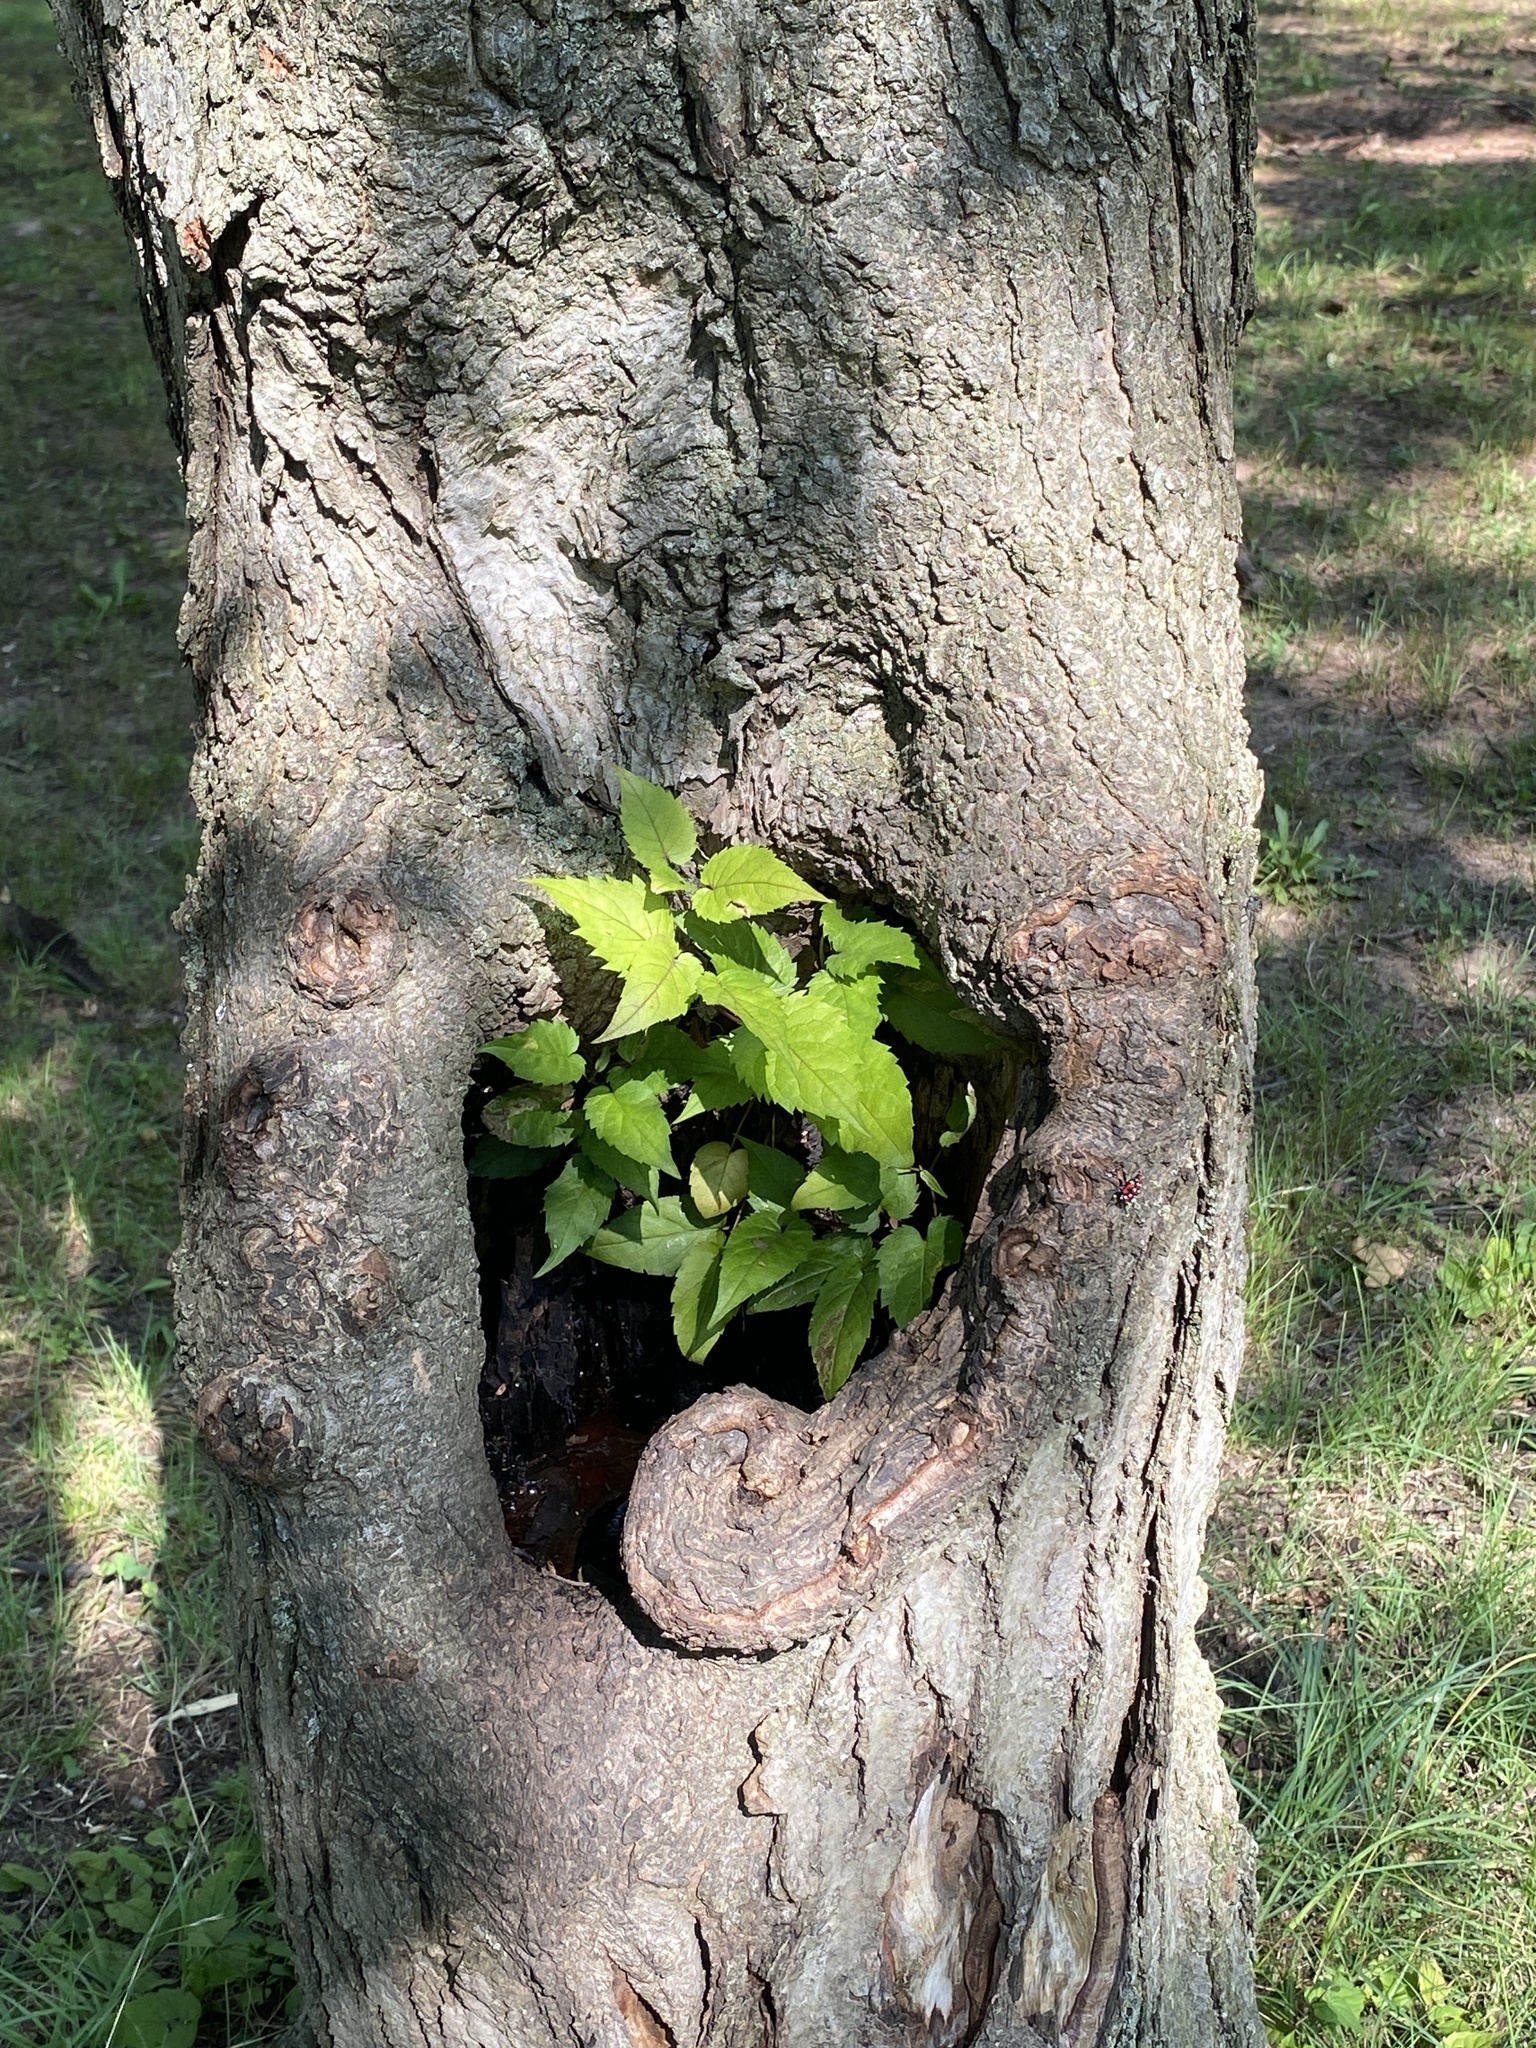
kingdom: Plantae
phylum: Tracheophyta
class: Magnoliopsida
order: Asterales
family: Asteraceae
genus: Eurybia
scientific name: Eurybia divaricata
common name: White wood aster
